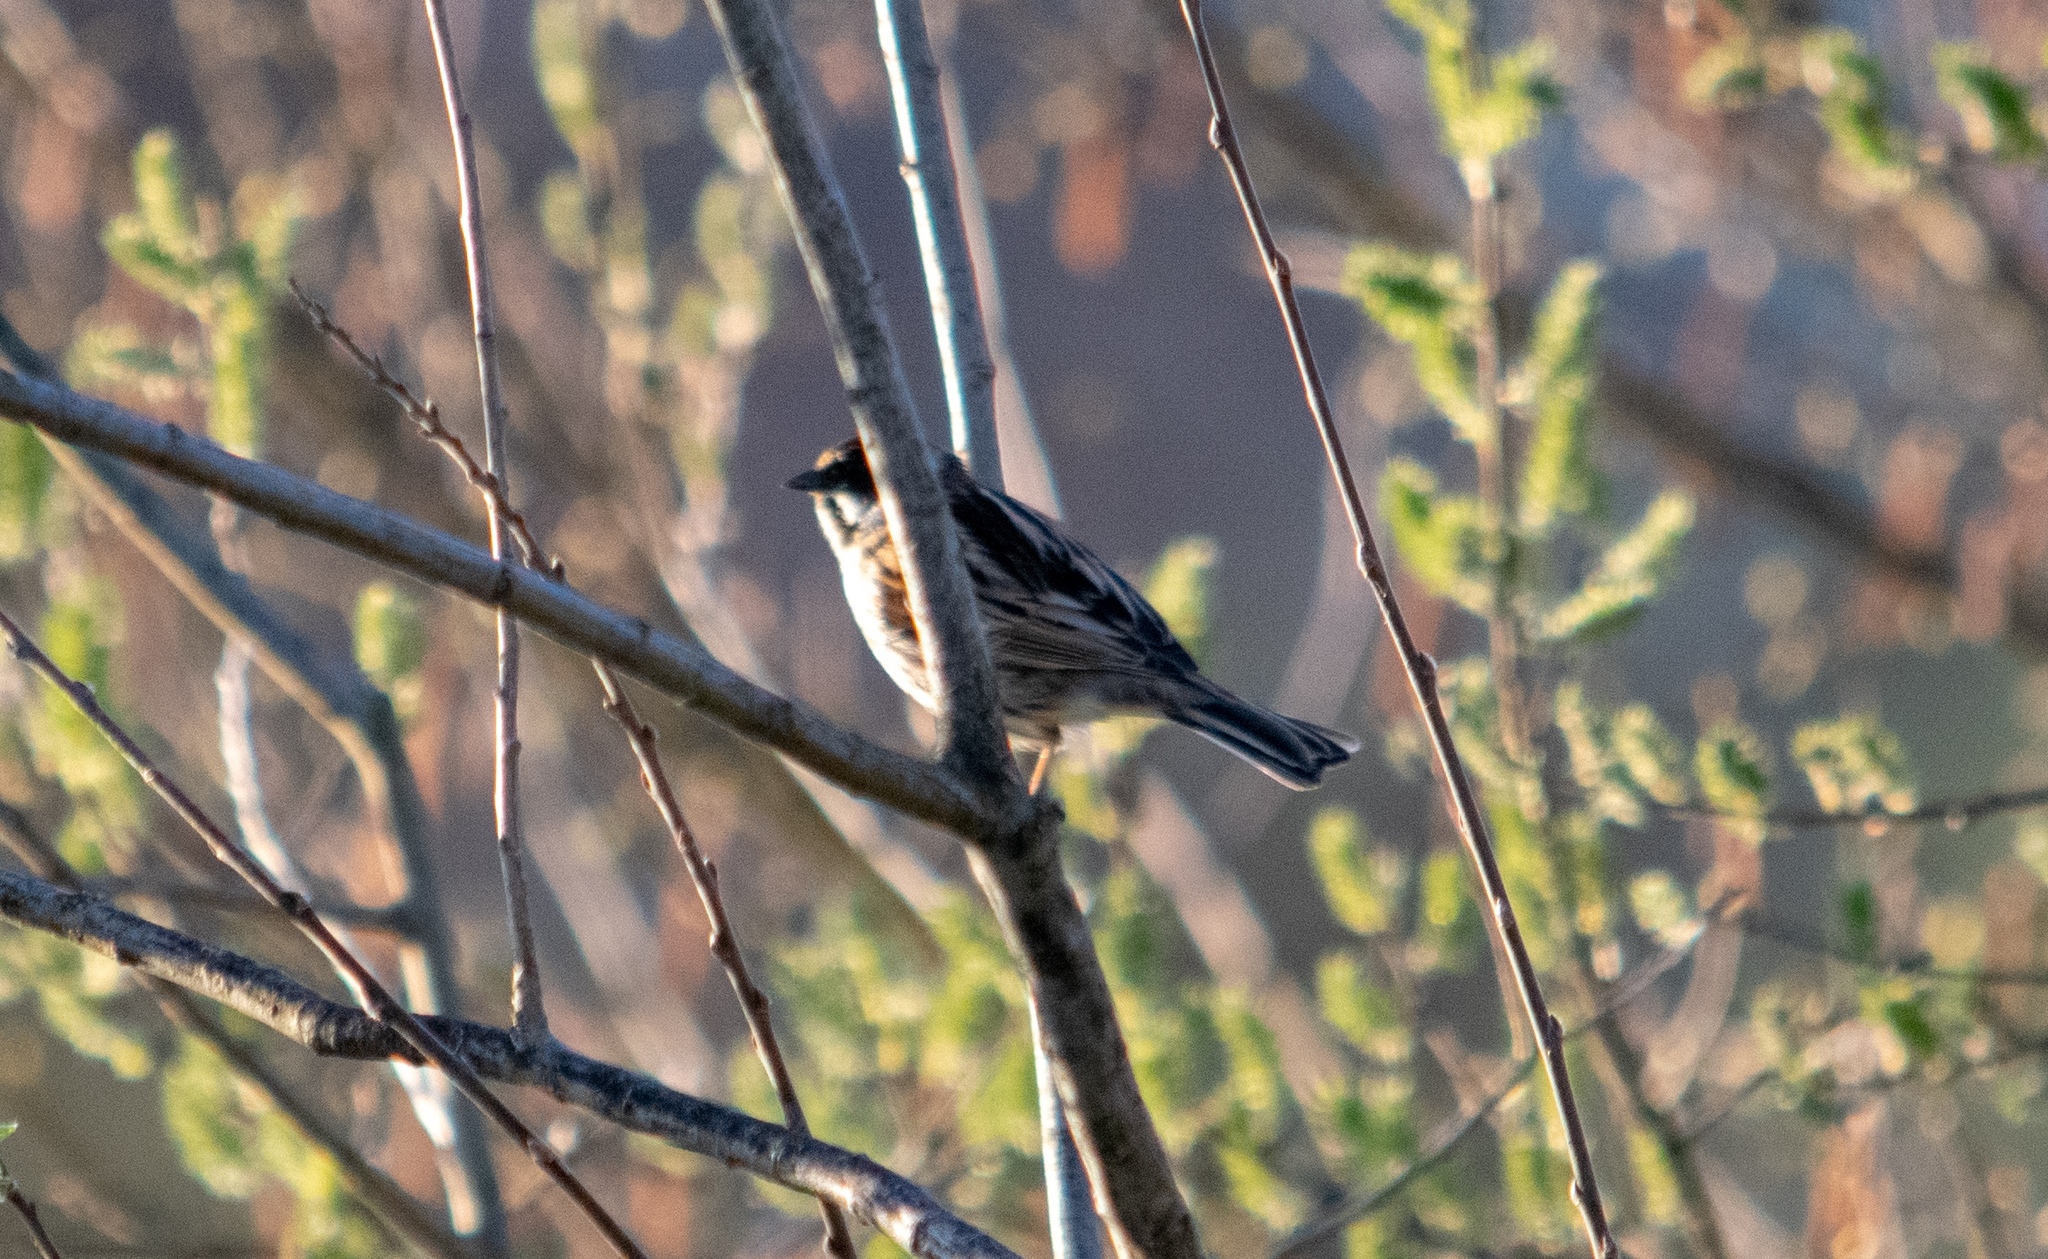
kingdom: Animalia
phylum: Chordata
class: Aves
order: Passeriformes
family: Emberizidae
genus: Emberiza
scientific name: Emberiza schoeniclus
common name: Reed bunting
